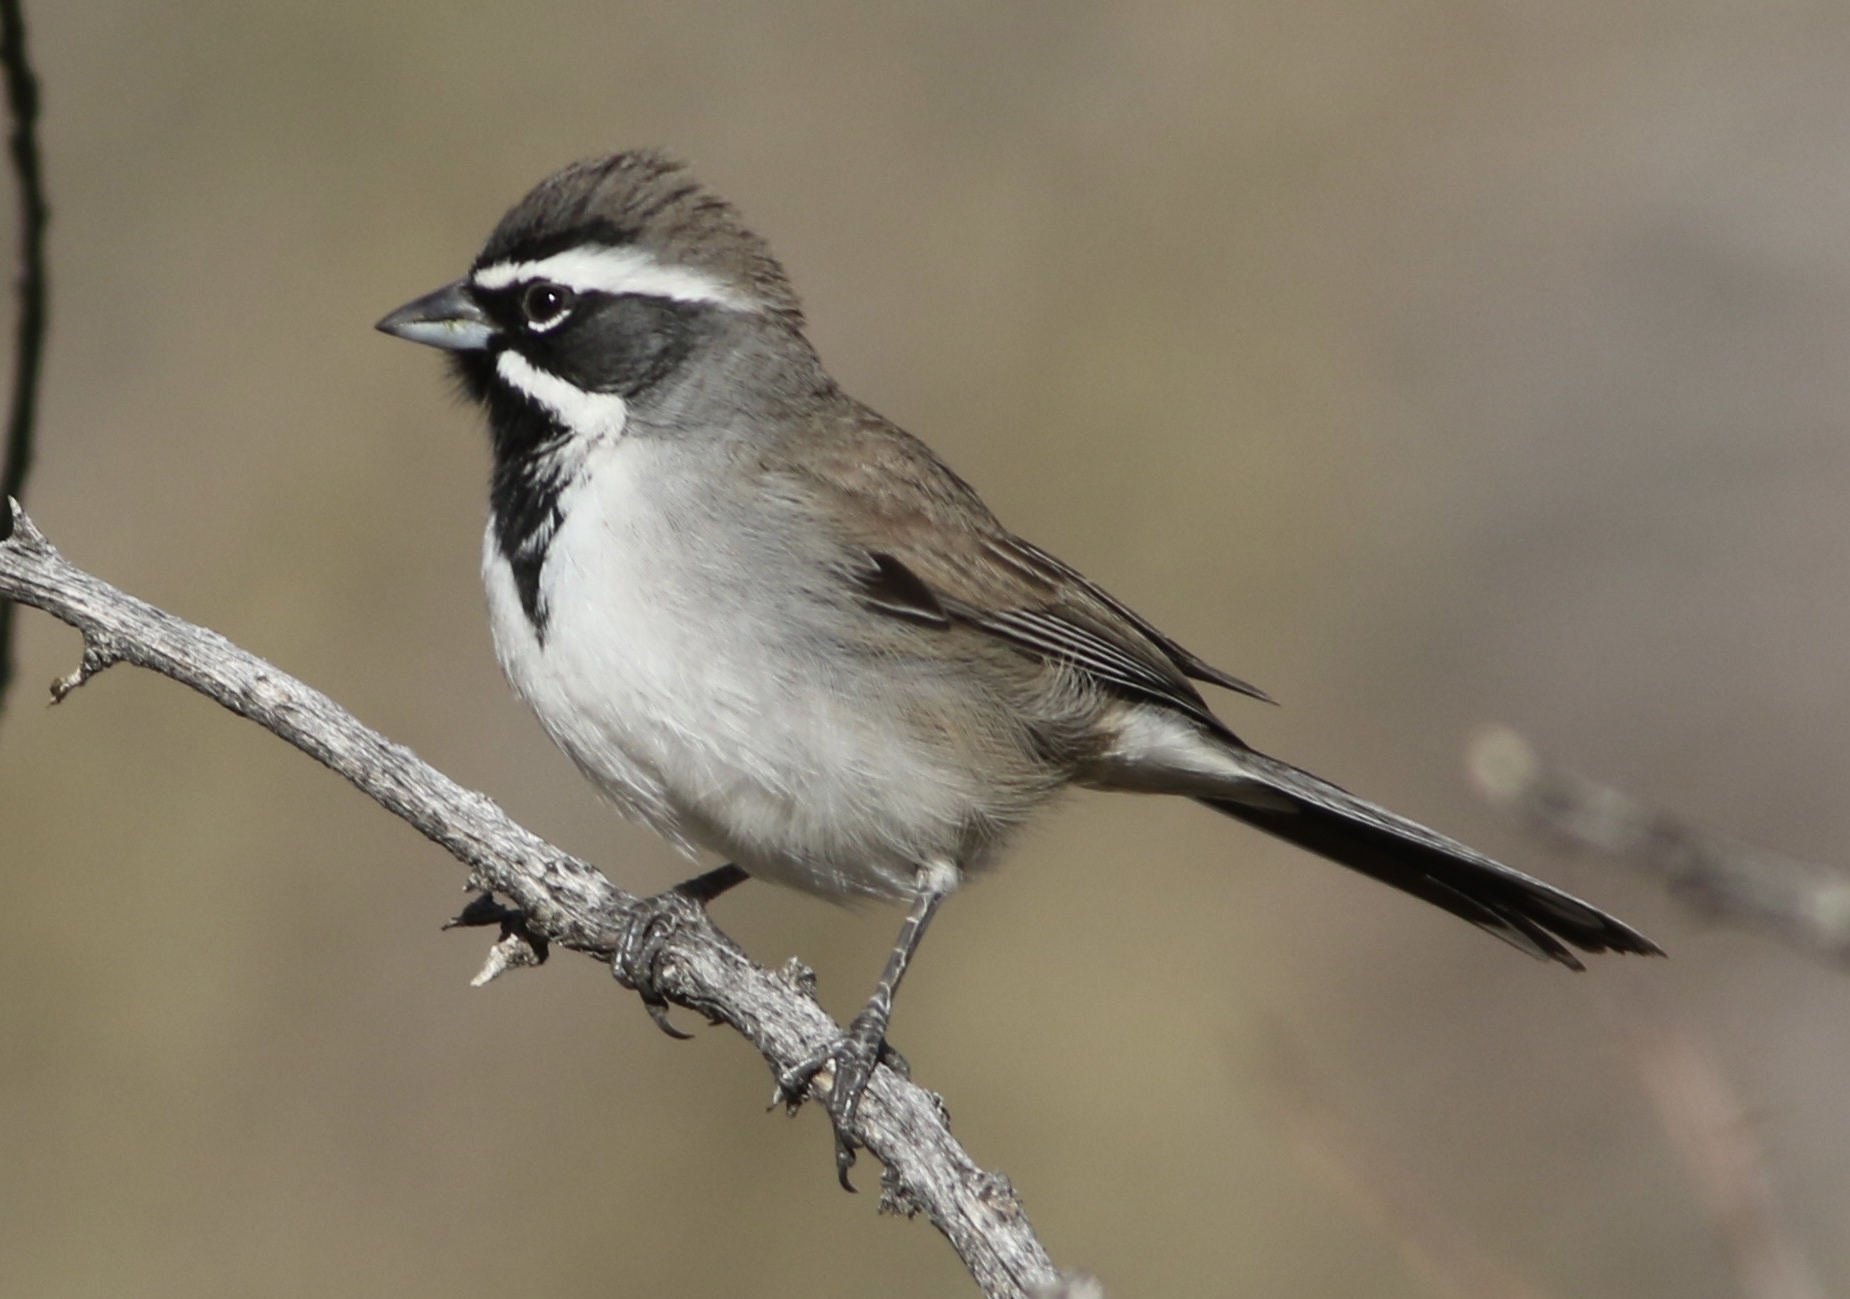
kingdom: Animalia
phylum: Chordata
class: Aves
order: Passeriformes
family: Passerellidae
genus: Amphispiza
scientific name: Amphispiza bilineata
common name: Black-throated sparrow
